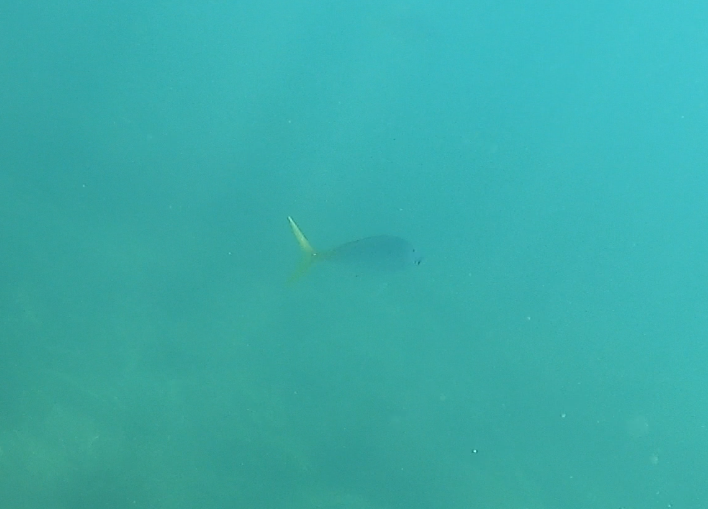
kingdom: Animalia
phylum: Chordata
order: Perciformes
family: Caesionidae
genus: Caesio
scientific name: Caesio cuning
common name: Red-bellied fusilier
